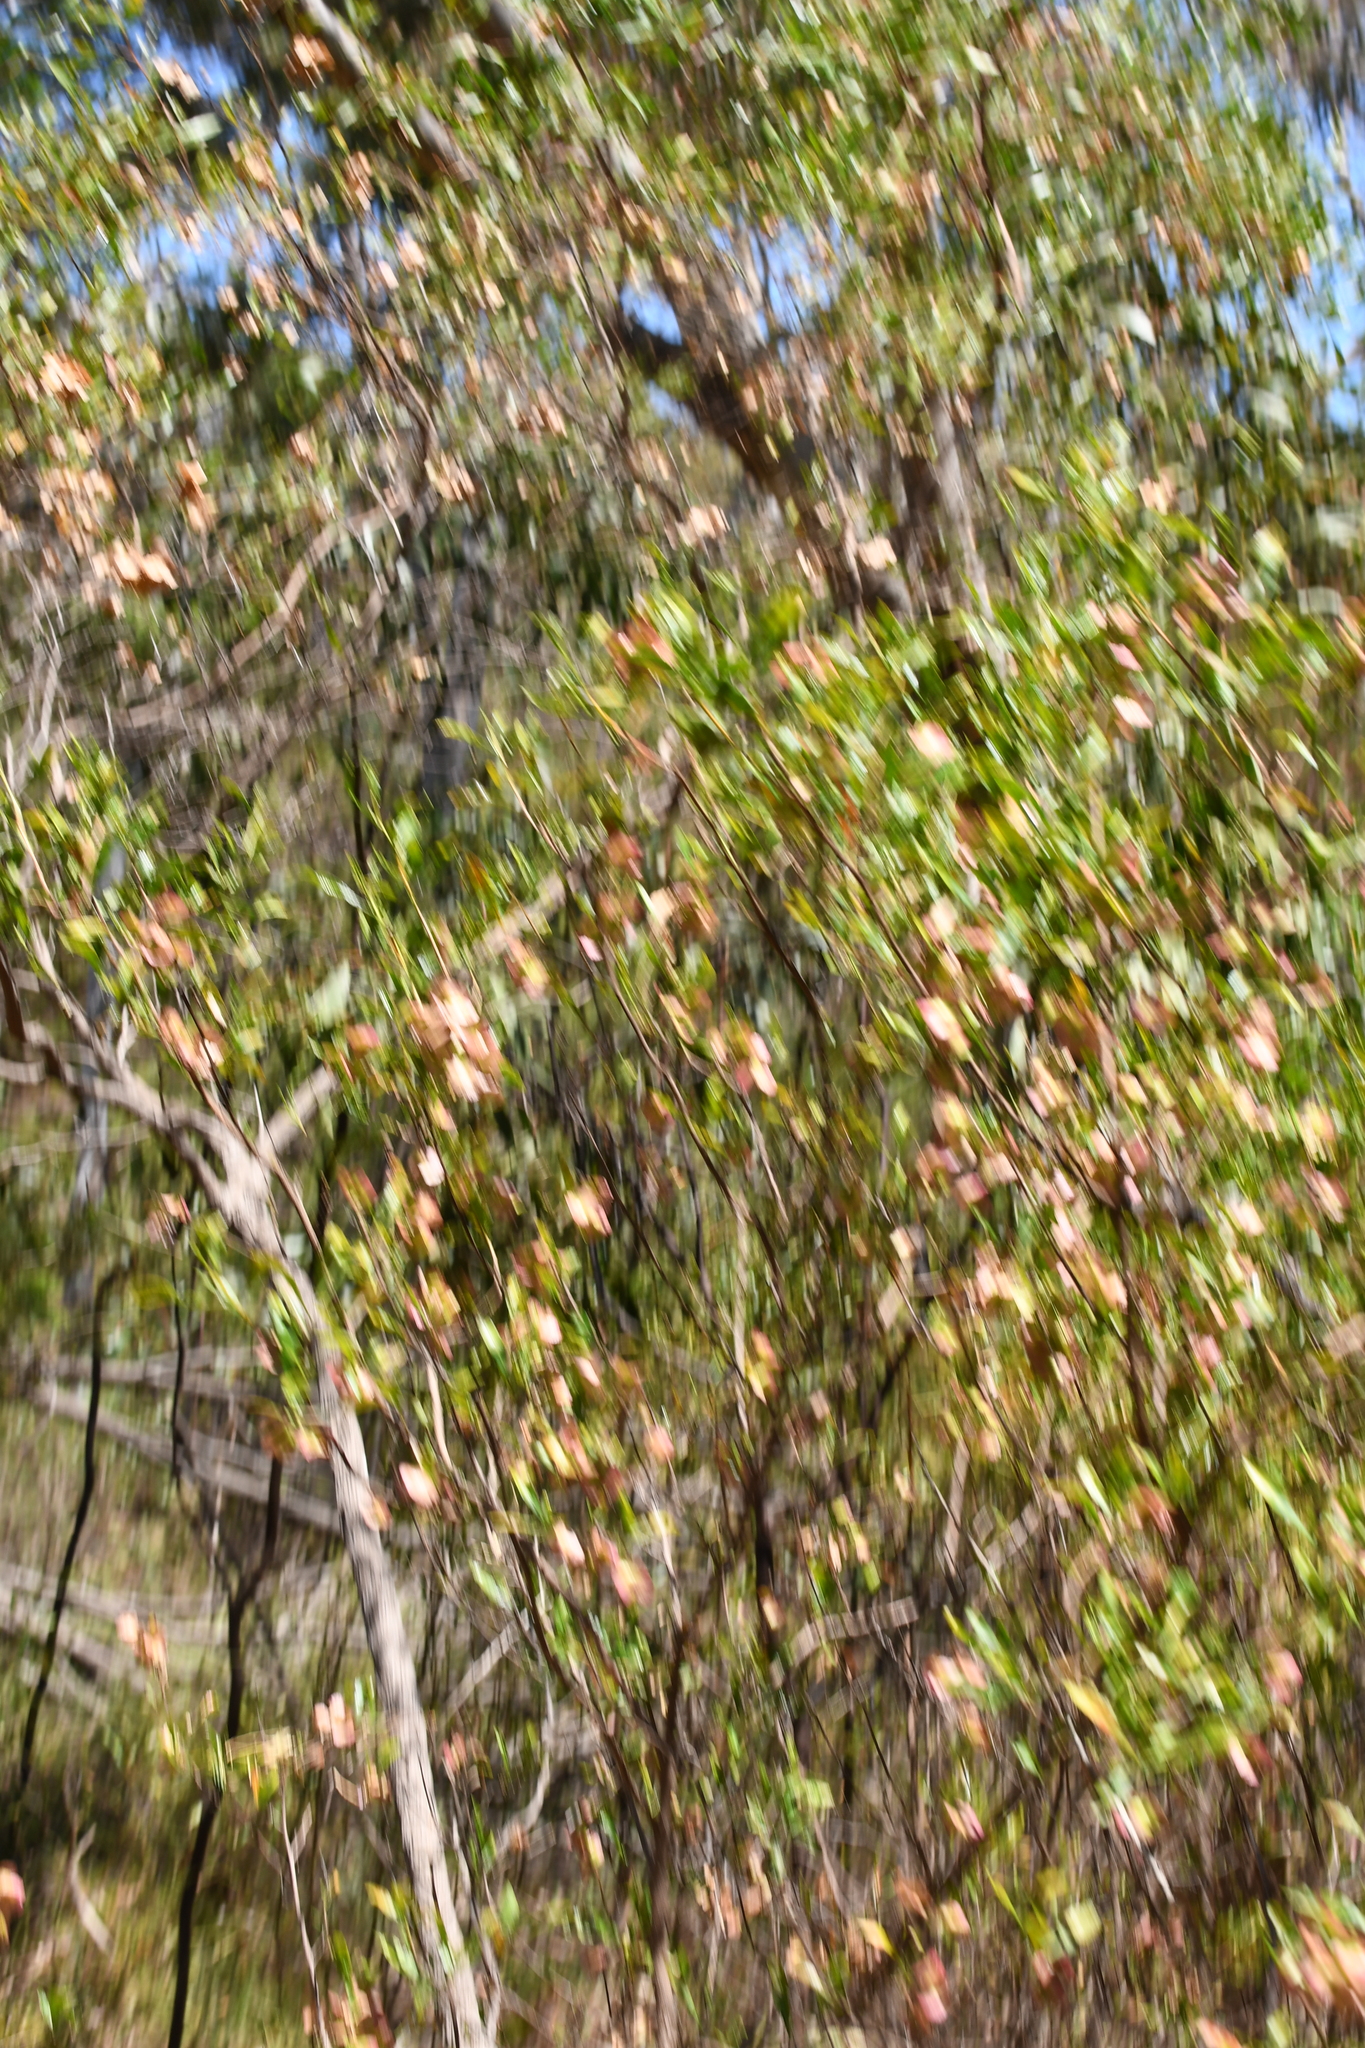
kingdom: Plantae
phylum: Tracheophyta
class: Magnoliopsida
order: Sapindales
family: Sapindaceae
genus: Dodonaea
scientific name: Dodonaea viscosa
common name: Hopbush
